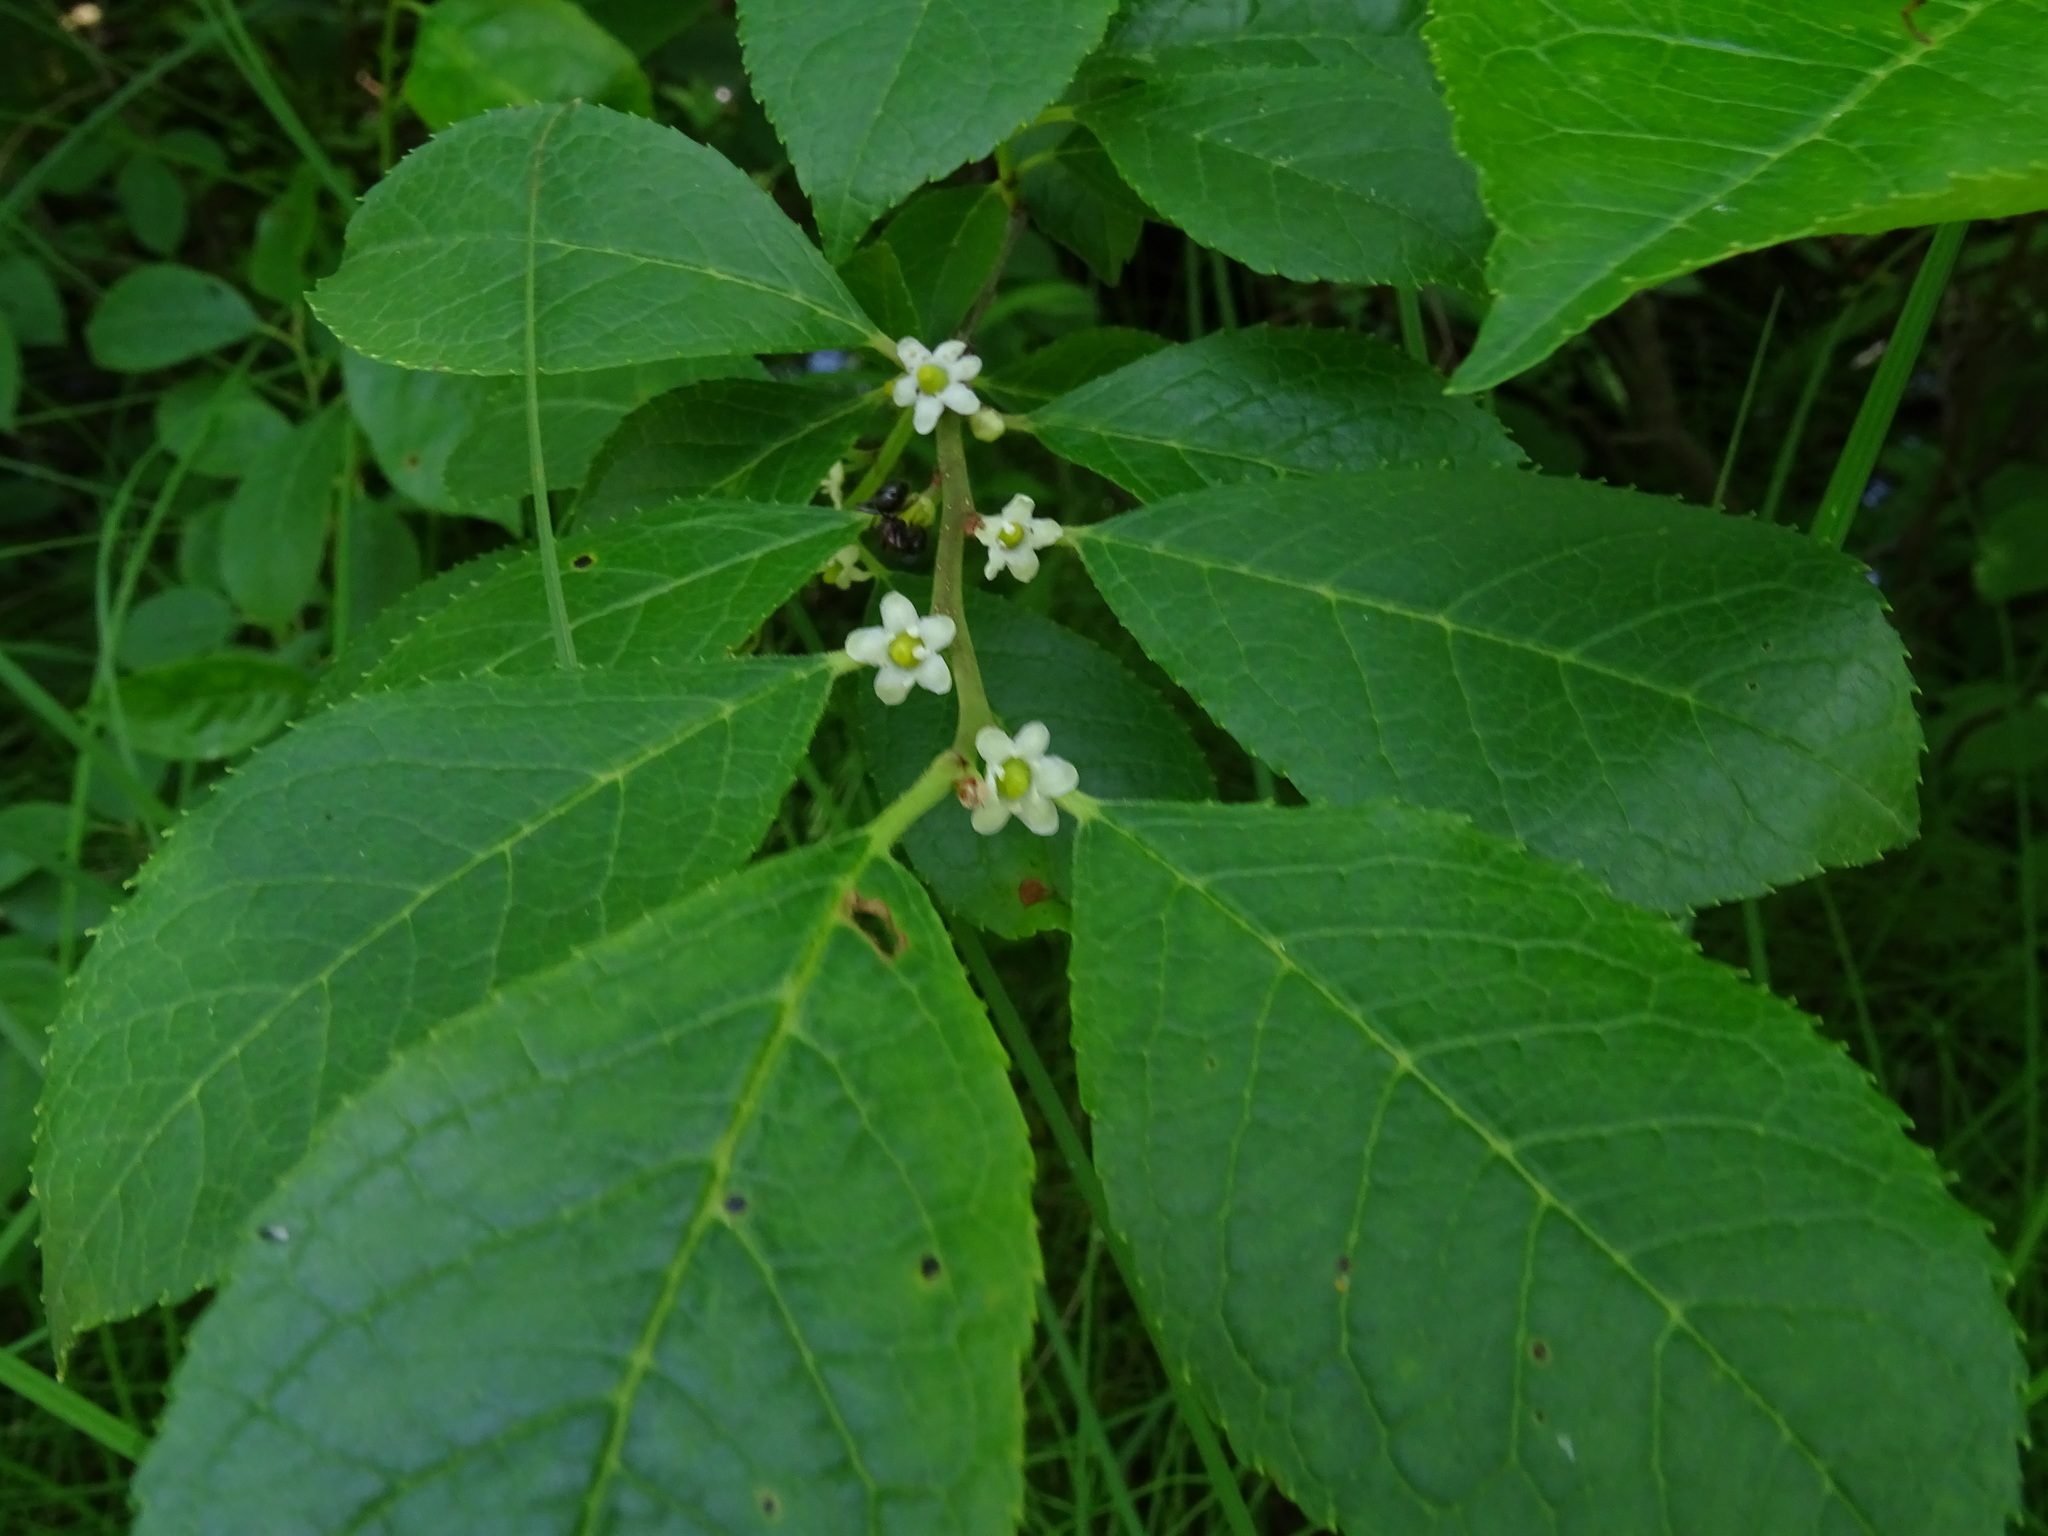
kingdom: Plantae
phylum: Tracheophyta
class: Magnoliopsida
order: Aquifoliales
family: Aquifoliaceae
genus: Ilex
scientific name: Ilex verticillata
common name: Virginia winterberry
